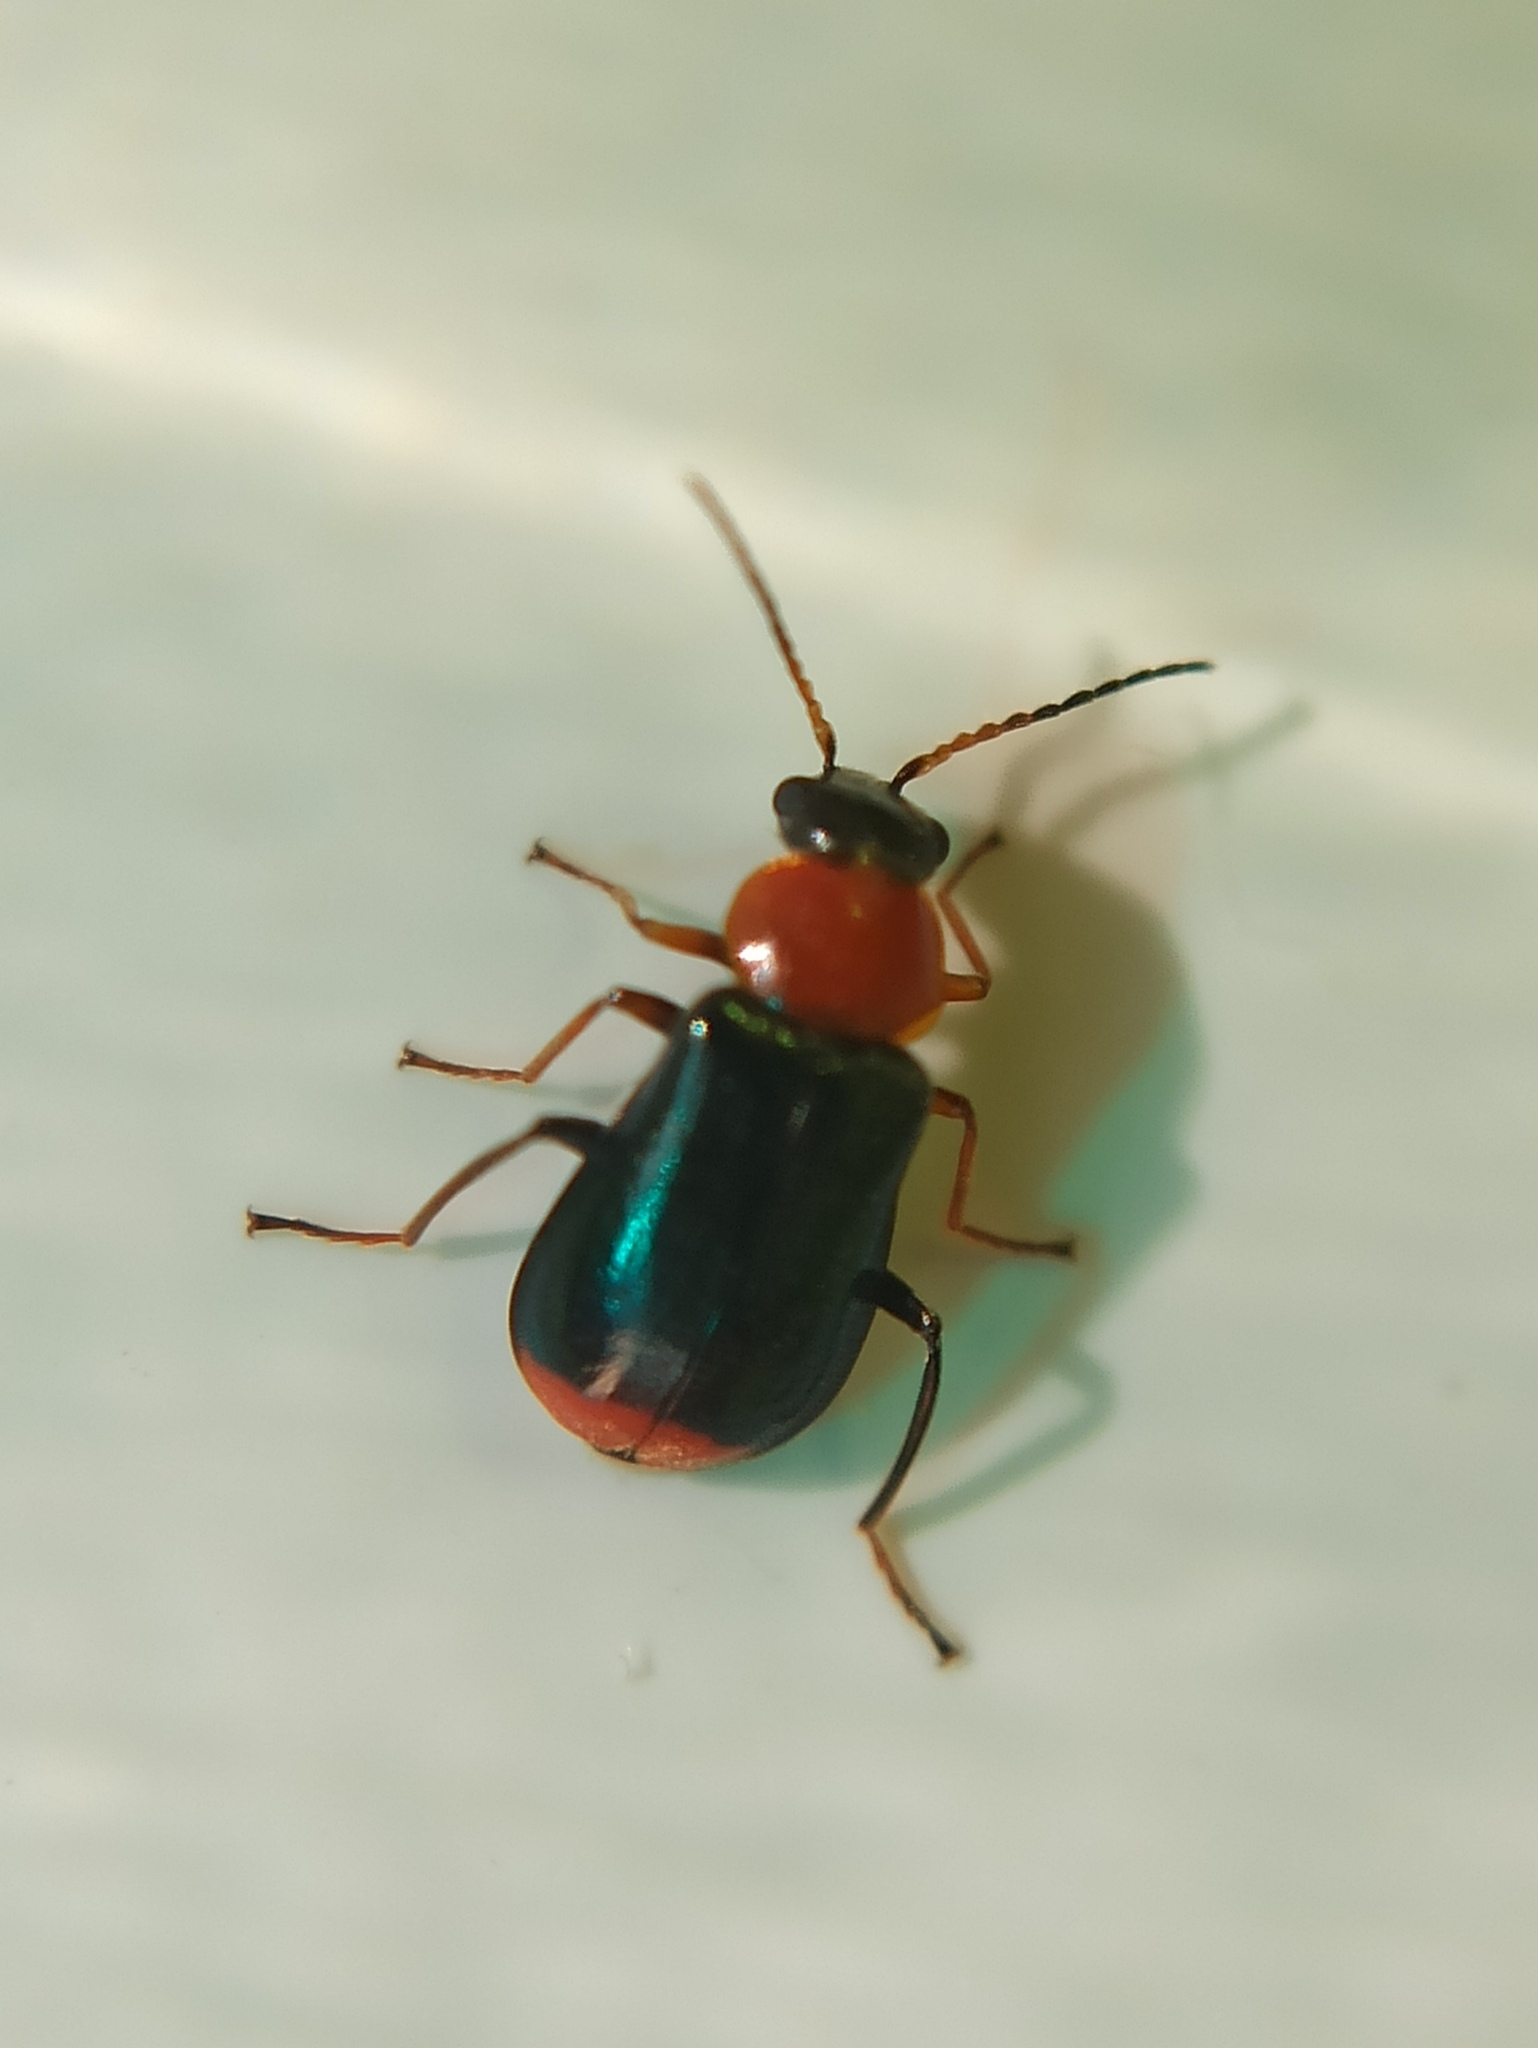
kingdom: Animalia
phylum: Arthropoda
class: Insecta
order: Coleoptera
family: Malachiidae
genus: Ebaeus
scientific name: Ebaeus battonii
